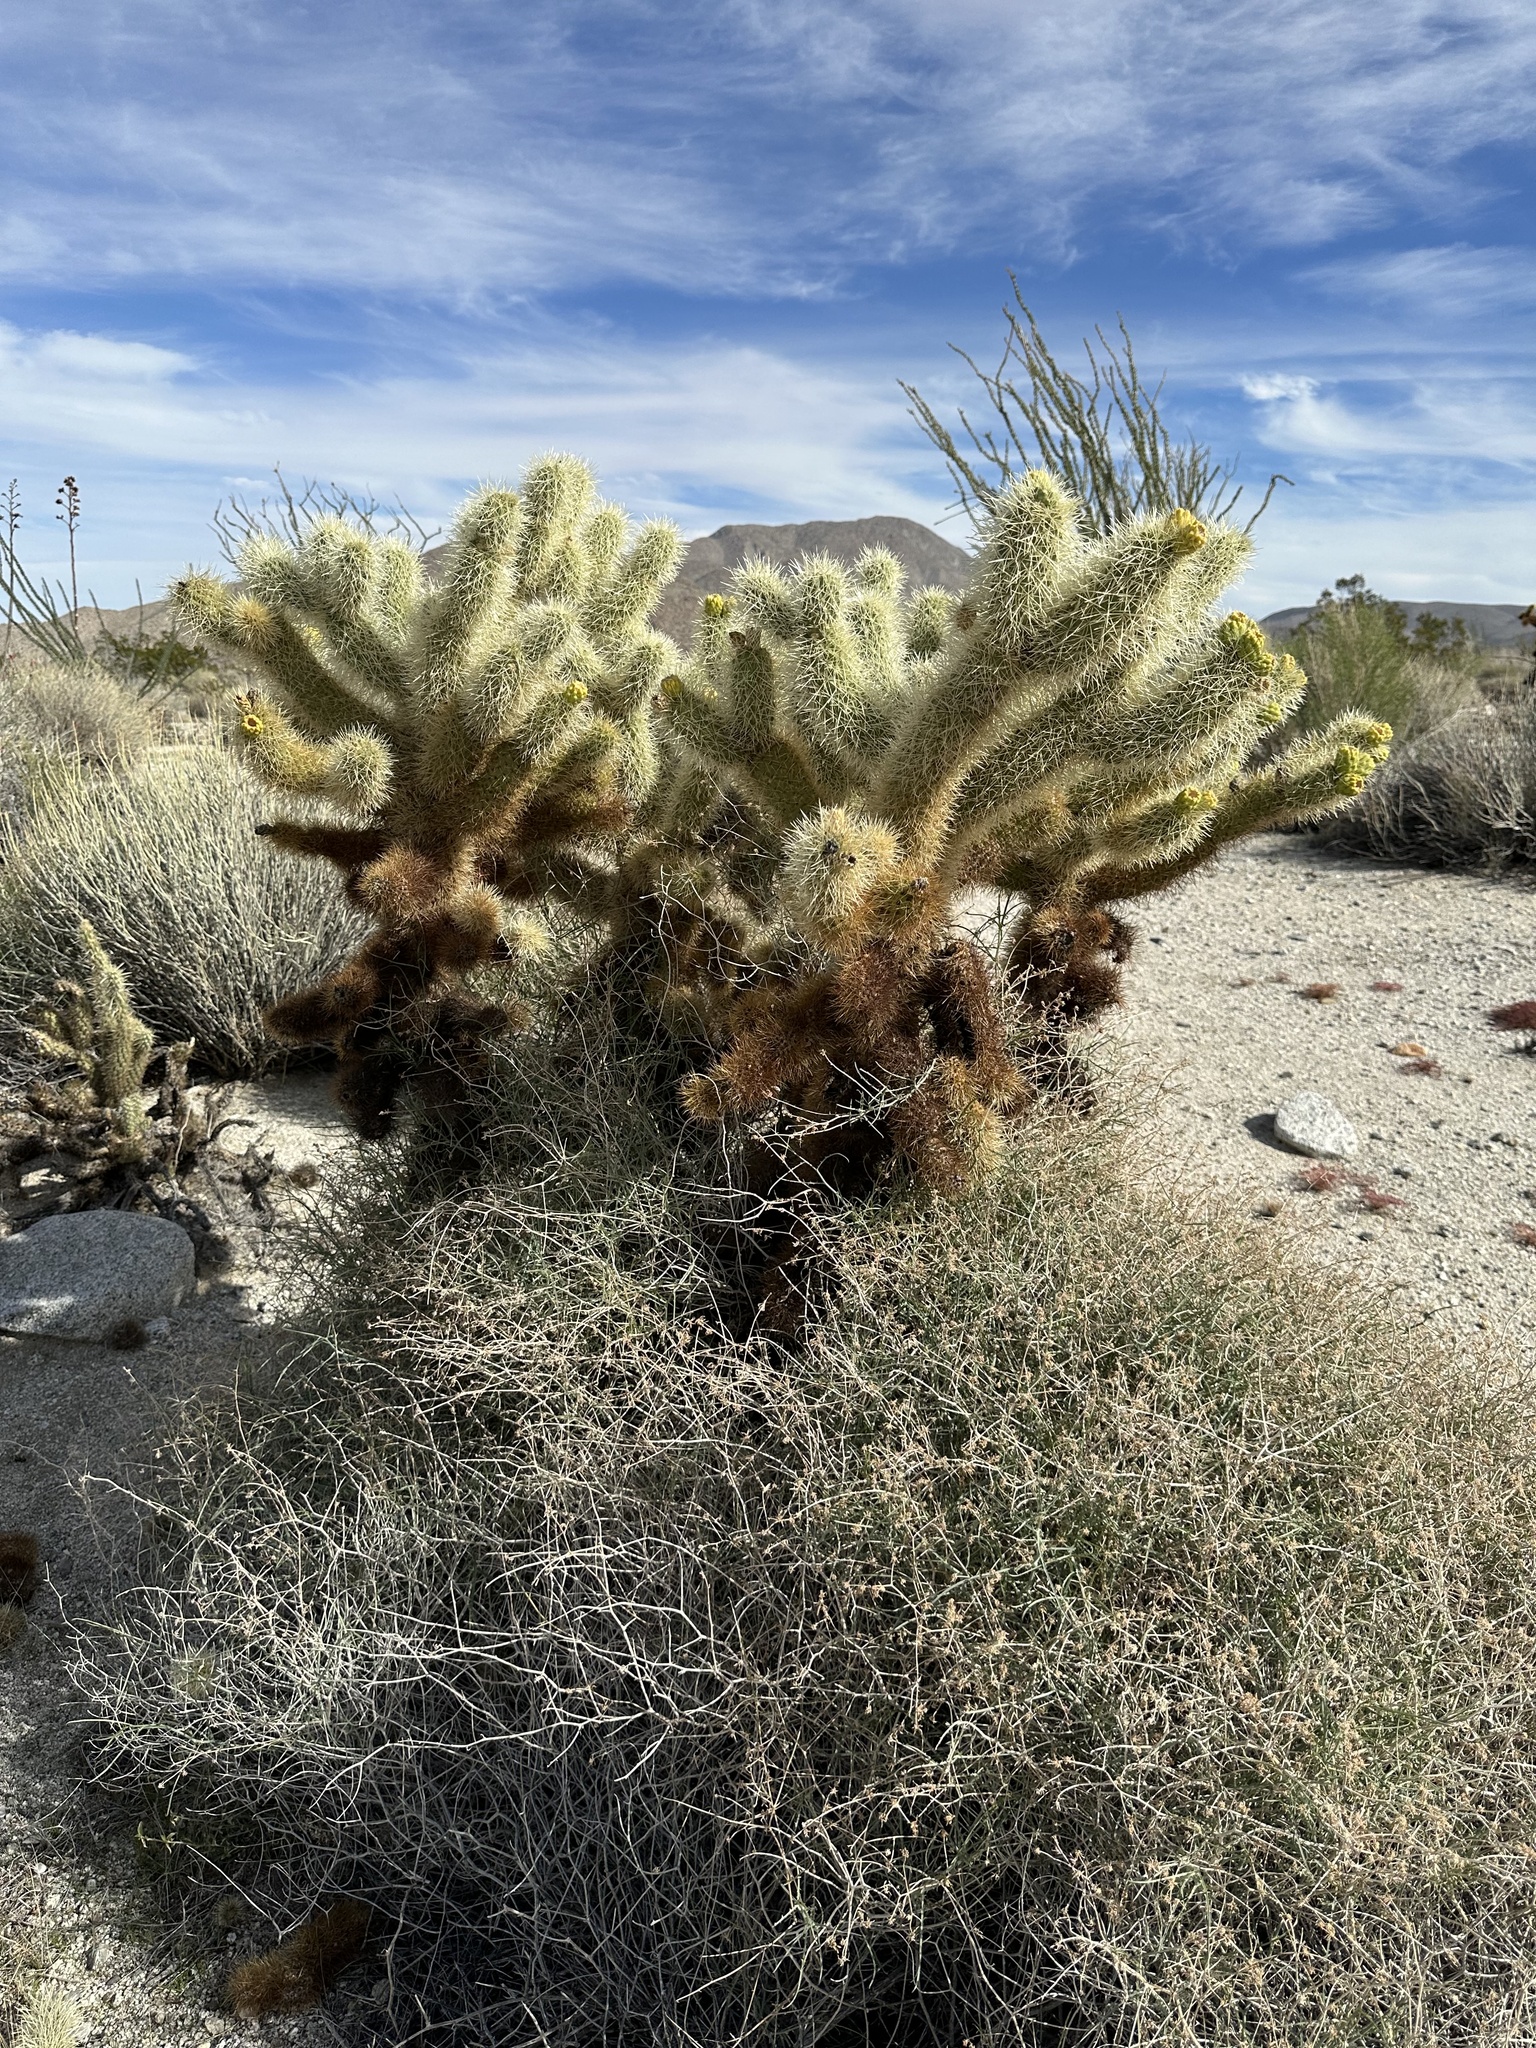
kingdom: Plantae
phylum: Tracheophyta
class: Magnoliopsida
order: Caryophyllales
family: Cactaceae
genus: Cylindropuntia
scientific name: Cylindropuntia fosbergii
